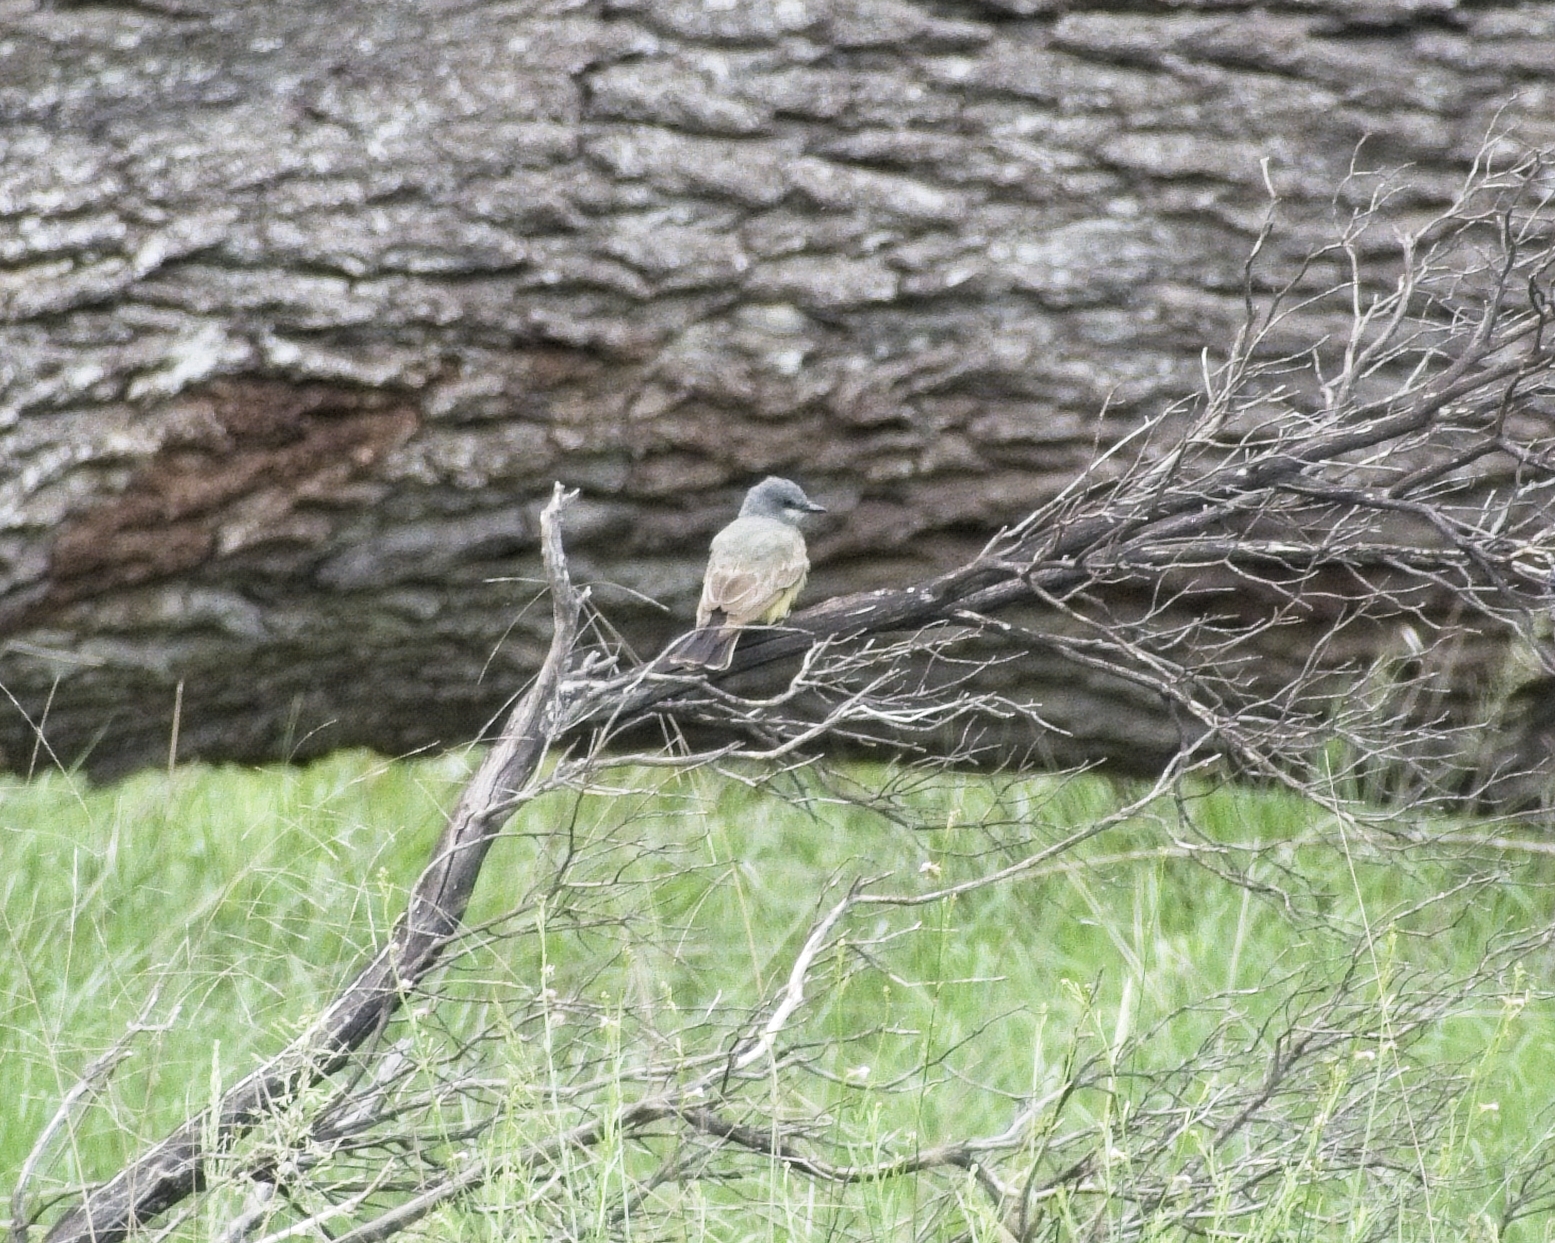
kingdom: Animalia
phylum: Chordata
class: Aves
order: Passeriformes
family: Tyrannidae
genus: Tyrannus
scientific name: Tyrannus vociferans
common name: Cassin's kingbird
